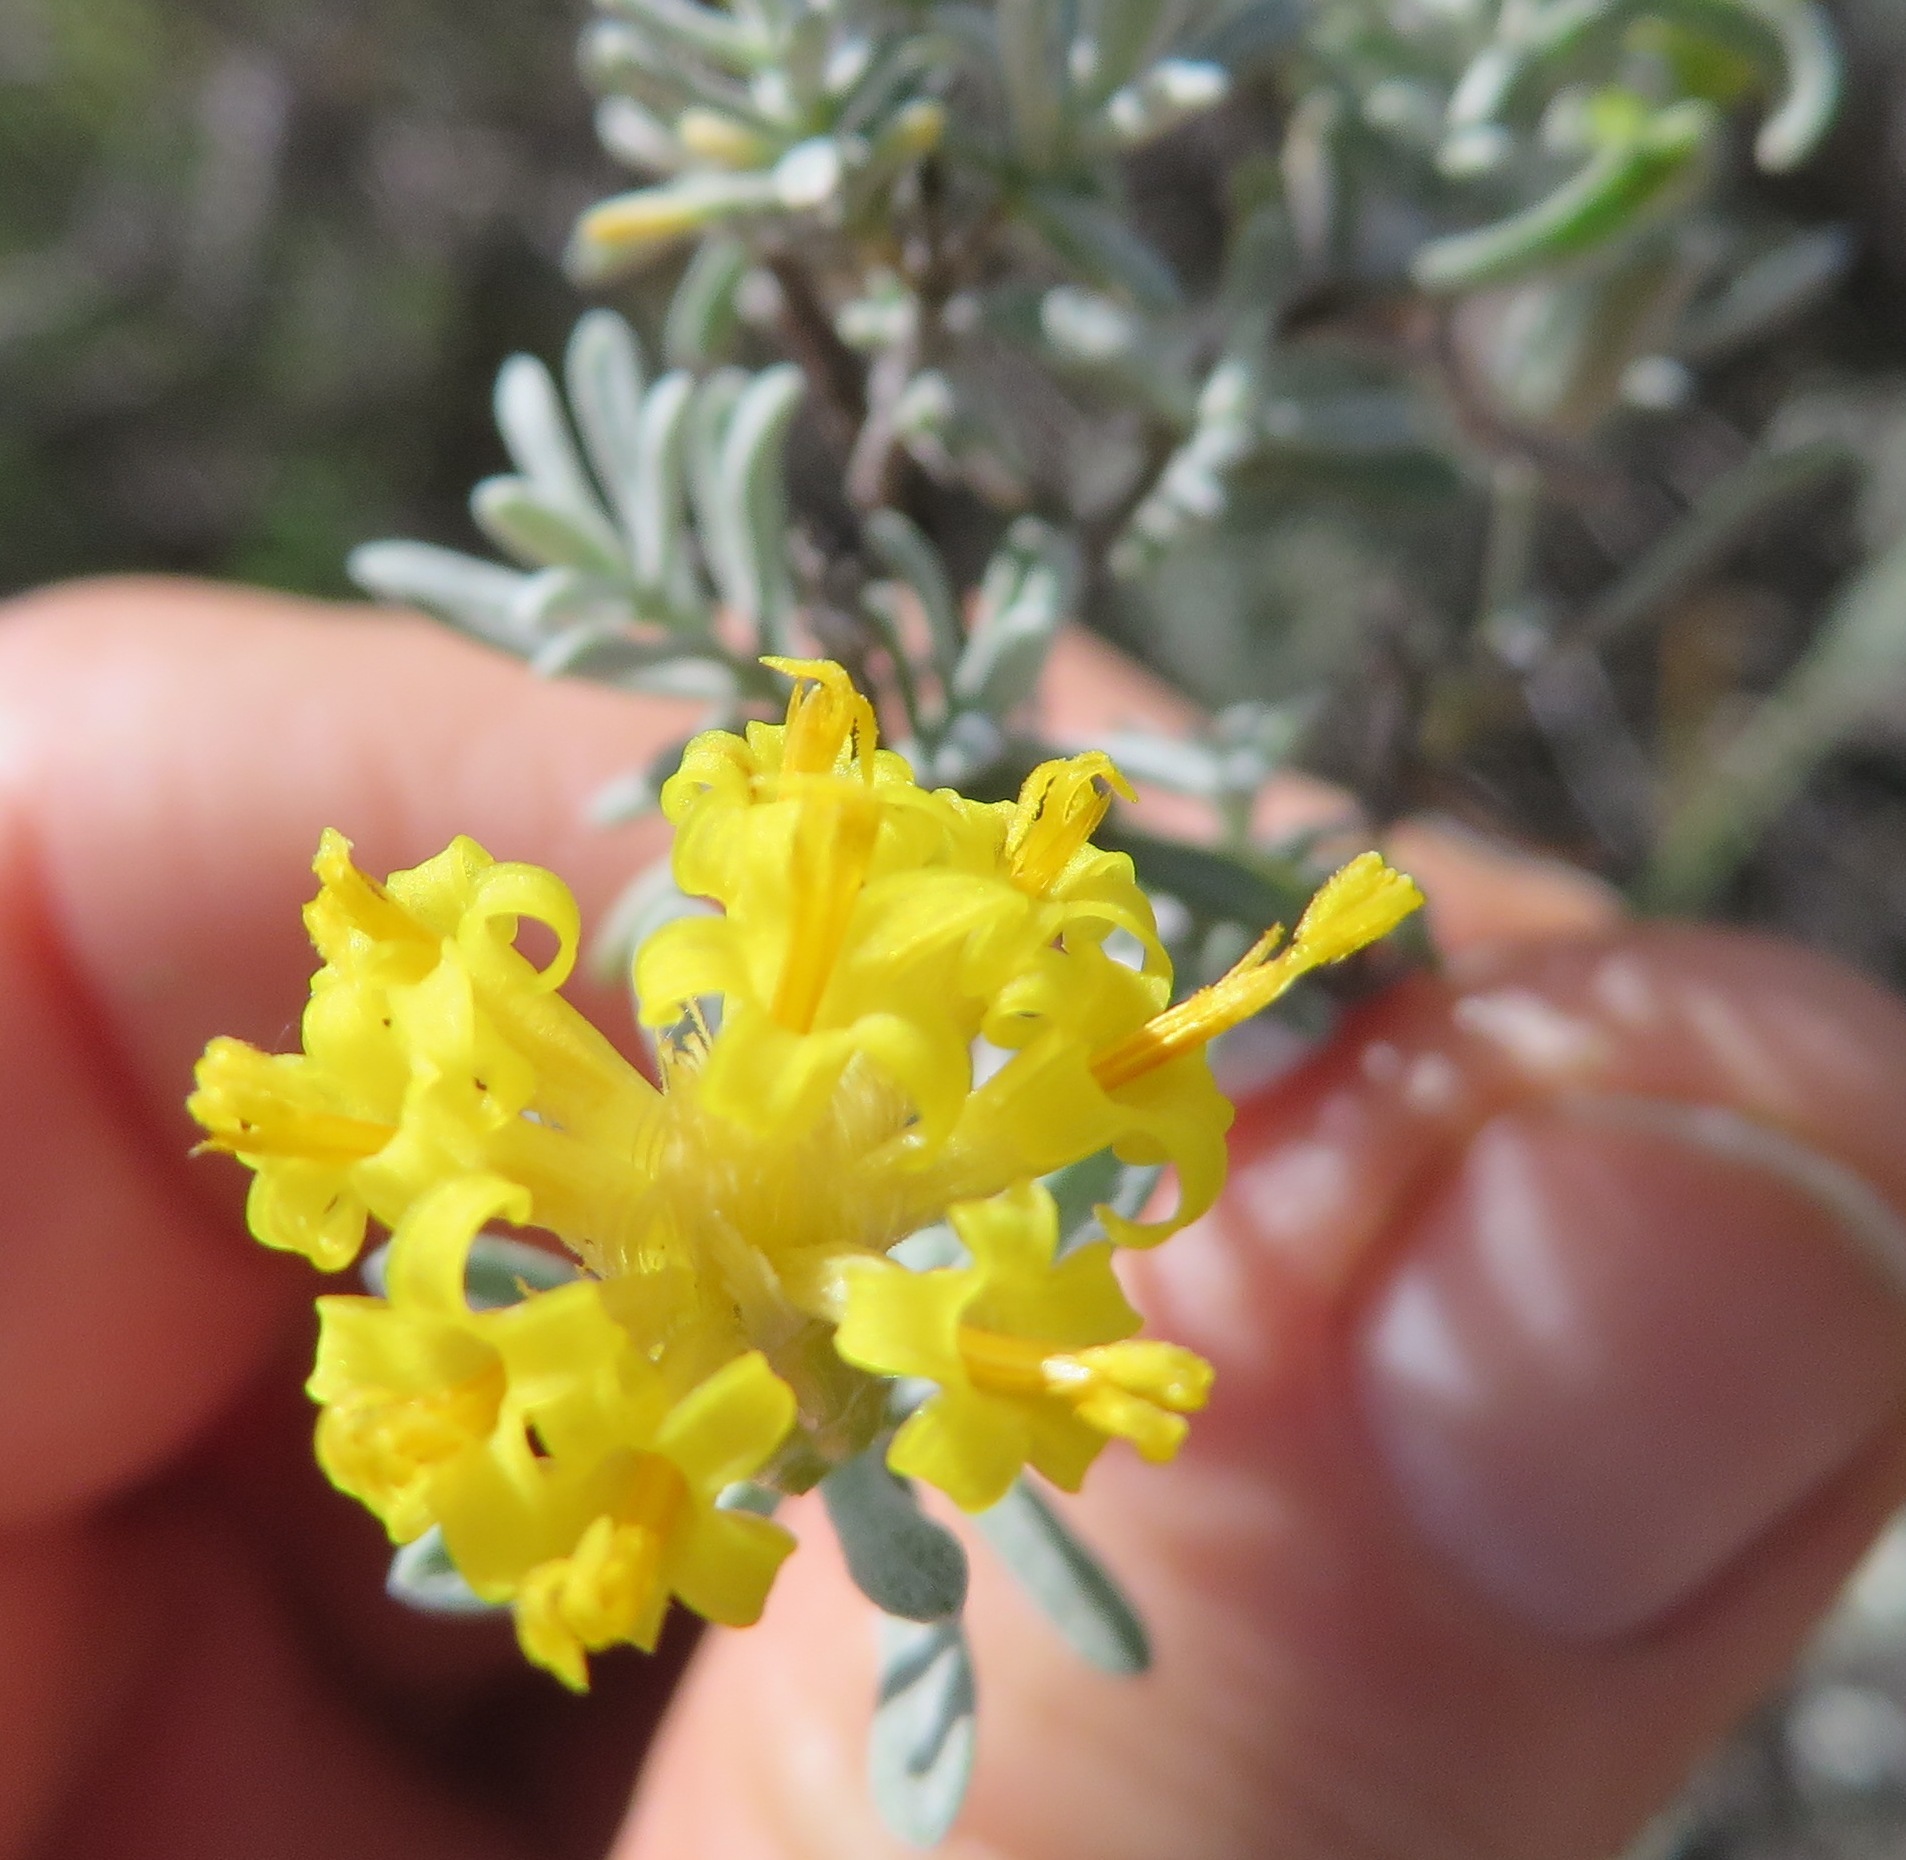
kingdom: Plantae
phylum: Tracheophyta
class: Magnoliopsida
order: Asterales
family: Asteraceae
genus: Pteronia
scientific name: Pteronia incana
